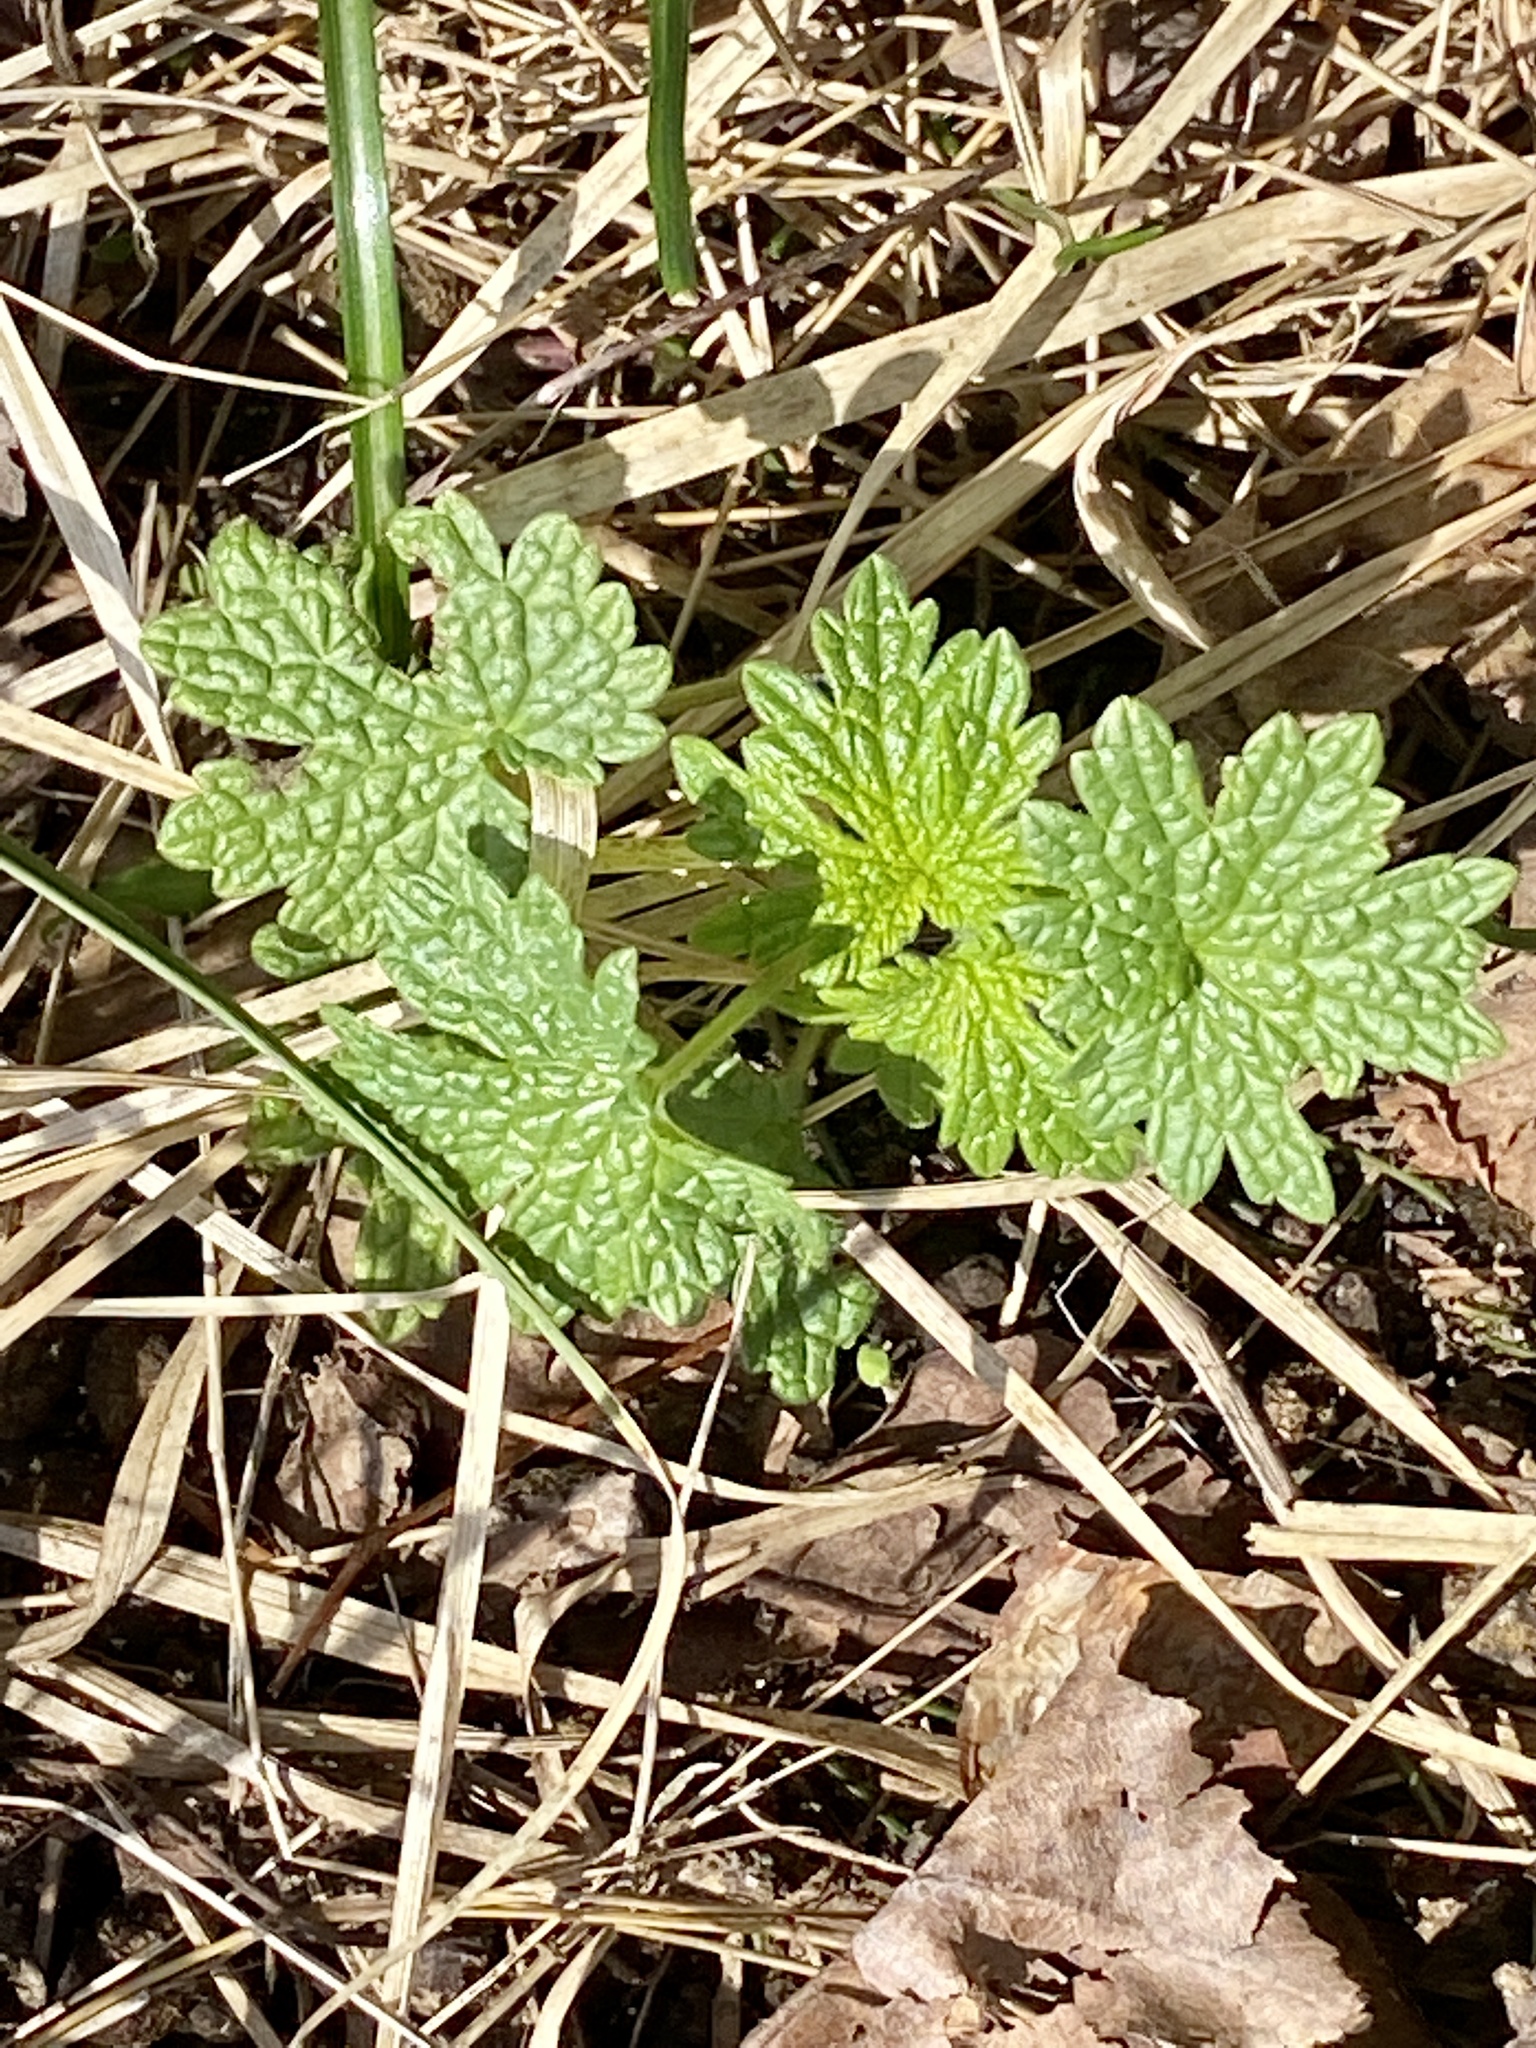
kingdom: Plantae
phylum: Tracheophyta
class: Magnoliopsida
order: Lamiales
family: Lamiaceae
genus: Leonurus
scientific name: Leonurus cardiaca
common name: Motherwort
